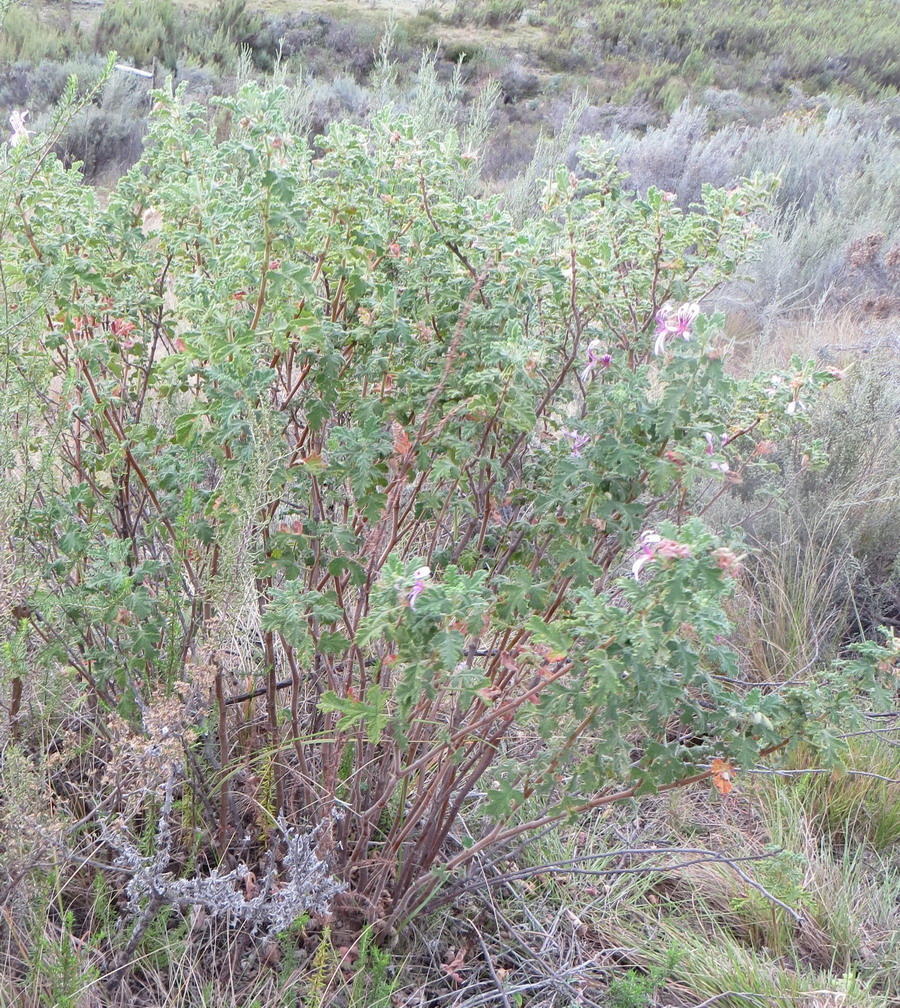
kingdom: Plantae
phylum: Tracheophyta
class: Magnoliopsida
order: Geraniales
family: Geraniaceae
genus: Pelargonium
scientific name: Pelargonium panduriforme
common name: Oakleaf garden geranium
